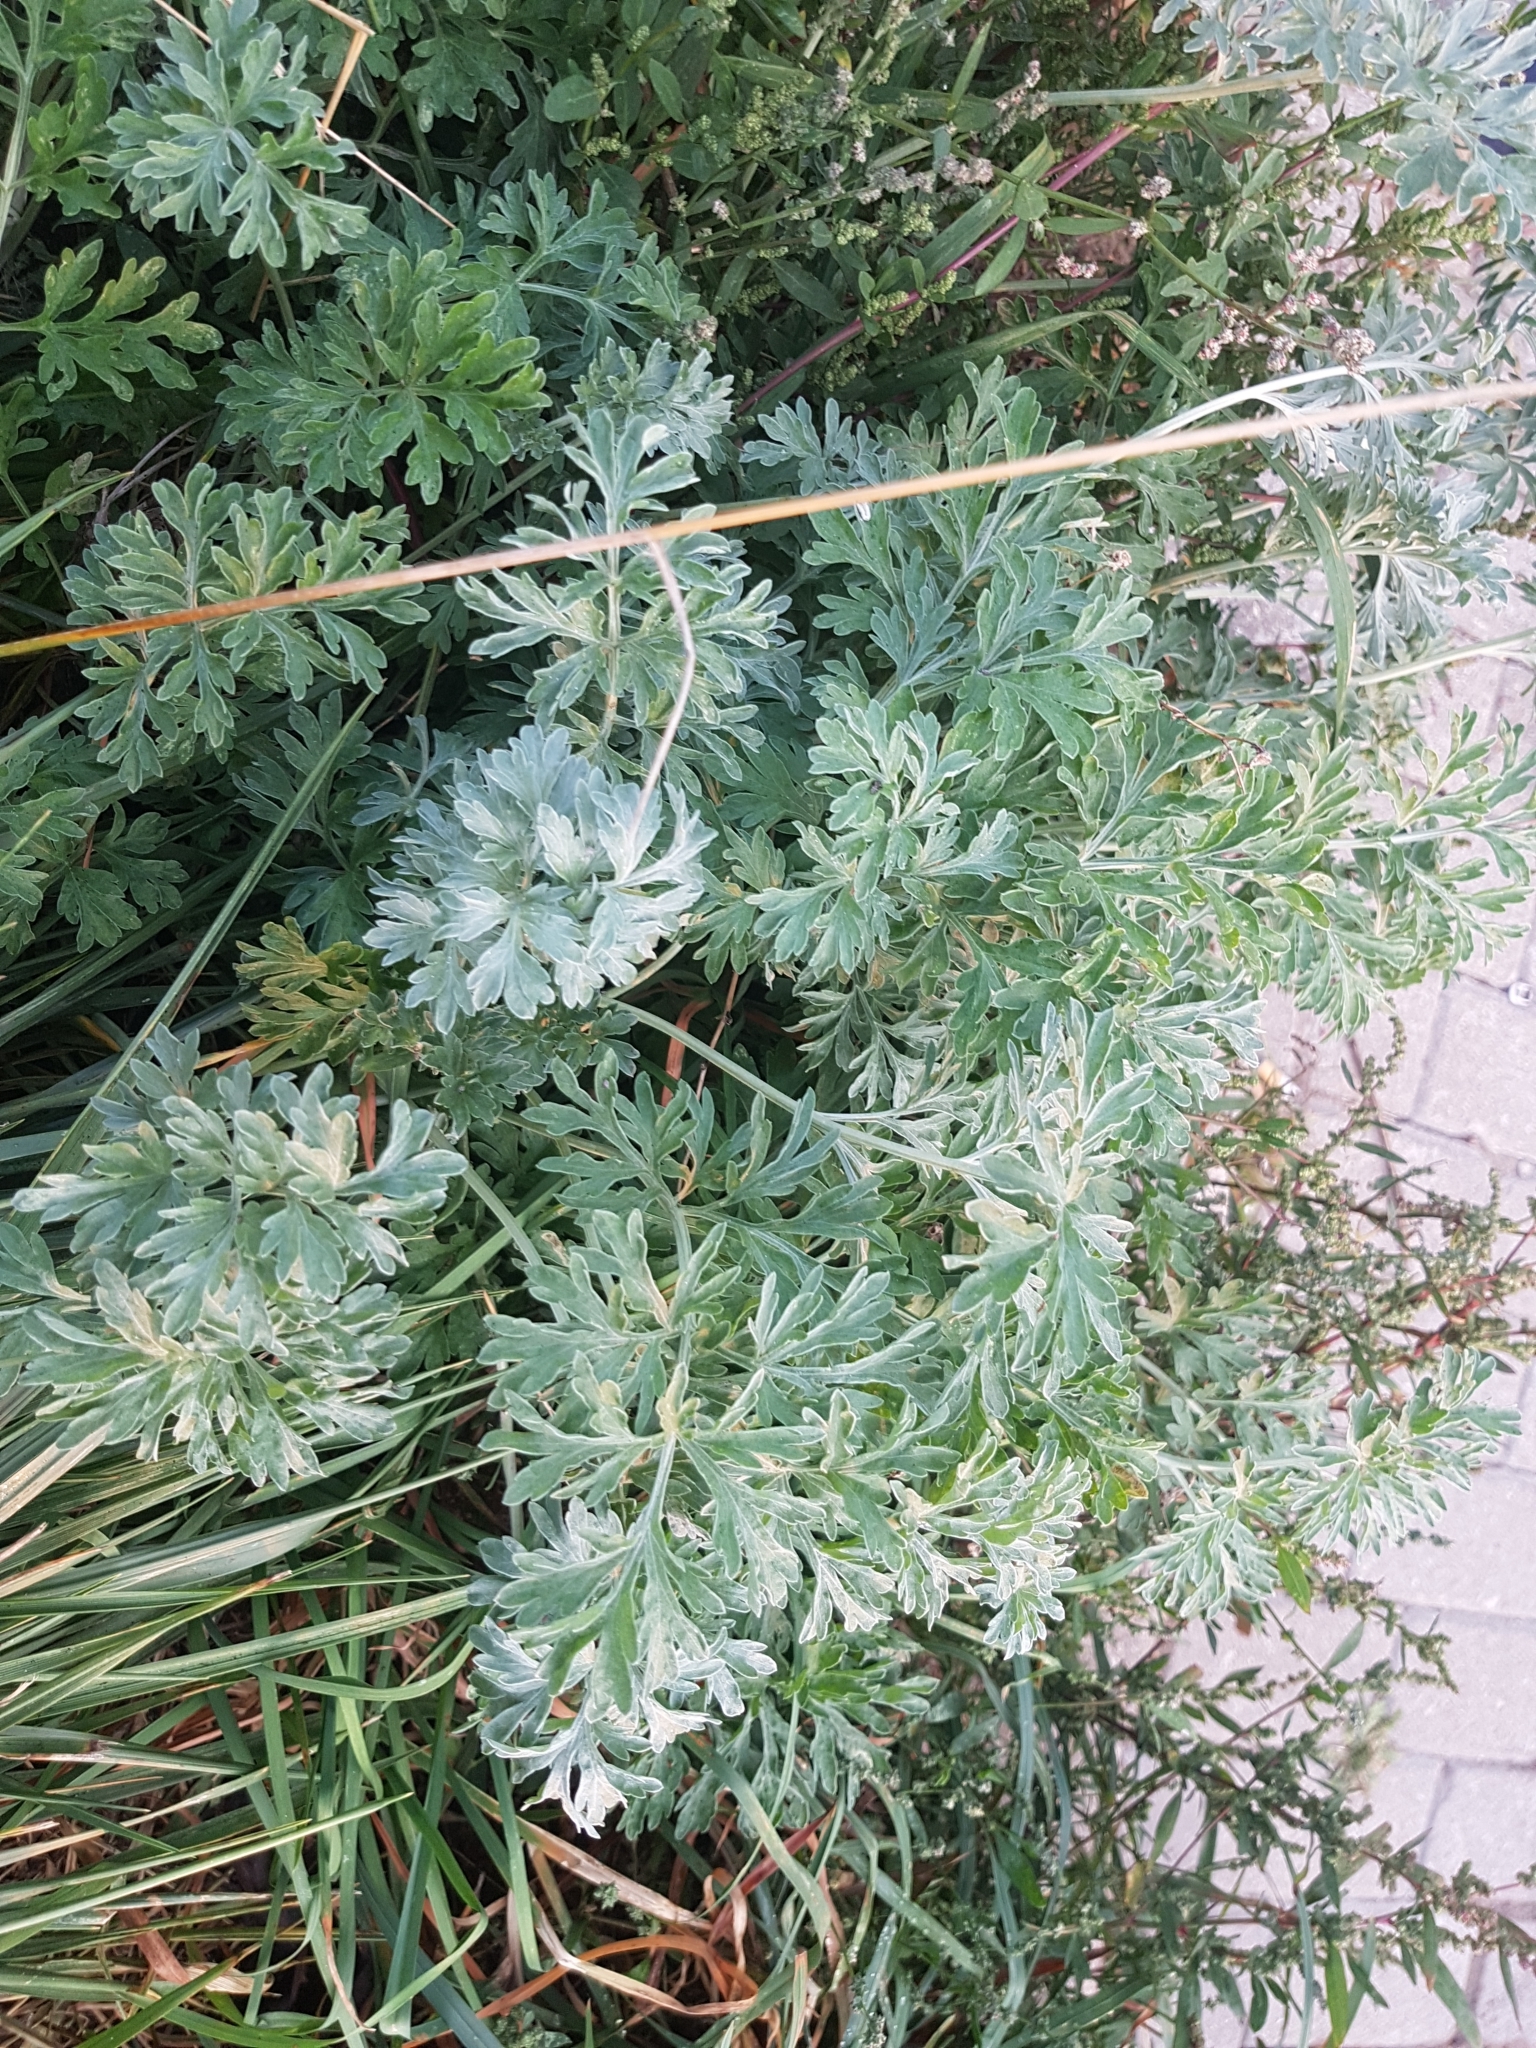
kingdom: Plantae
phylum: Tracheophyta
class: Magnoliopsida
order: Asterales
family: Asteraceae
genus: Artemisia
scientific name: Artemisia absinthium
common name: Wormwood
